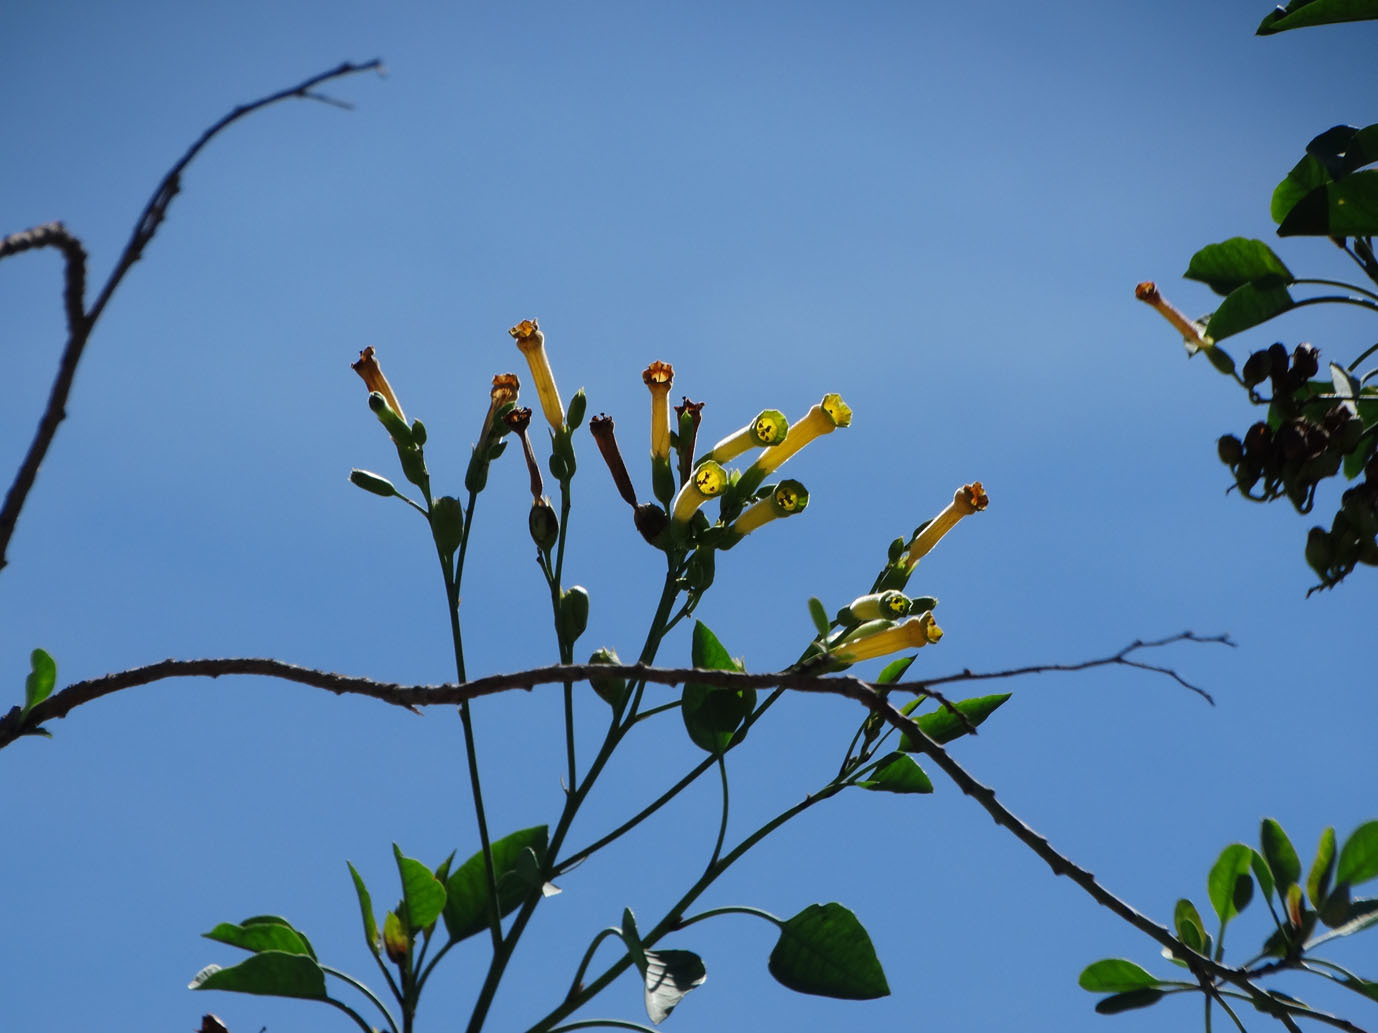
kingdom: Plantae
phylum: Tracheophyta
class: Magnoliopsida
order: Solanales
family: Solanaceae
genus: Nicotiana
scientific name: Nicotiana glauca
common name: Tree tobacco
